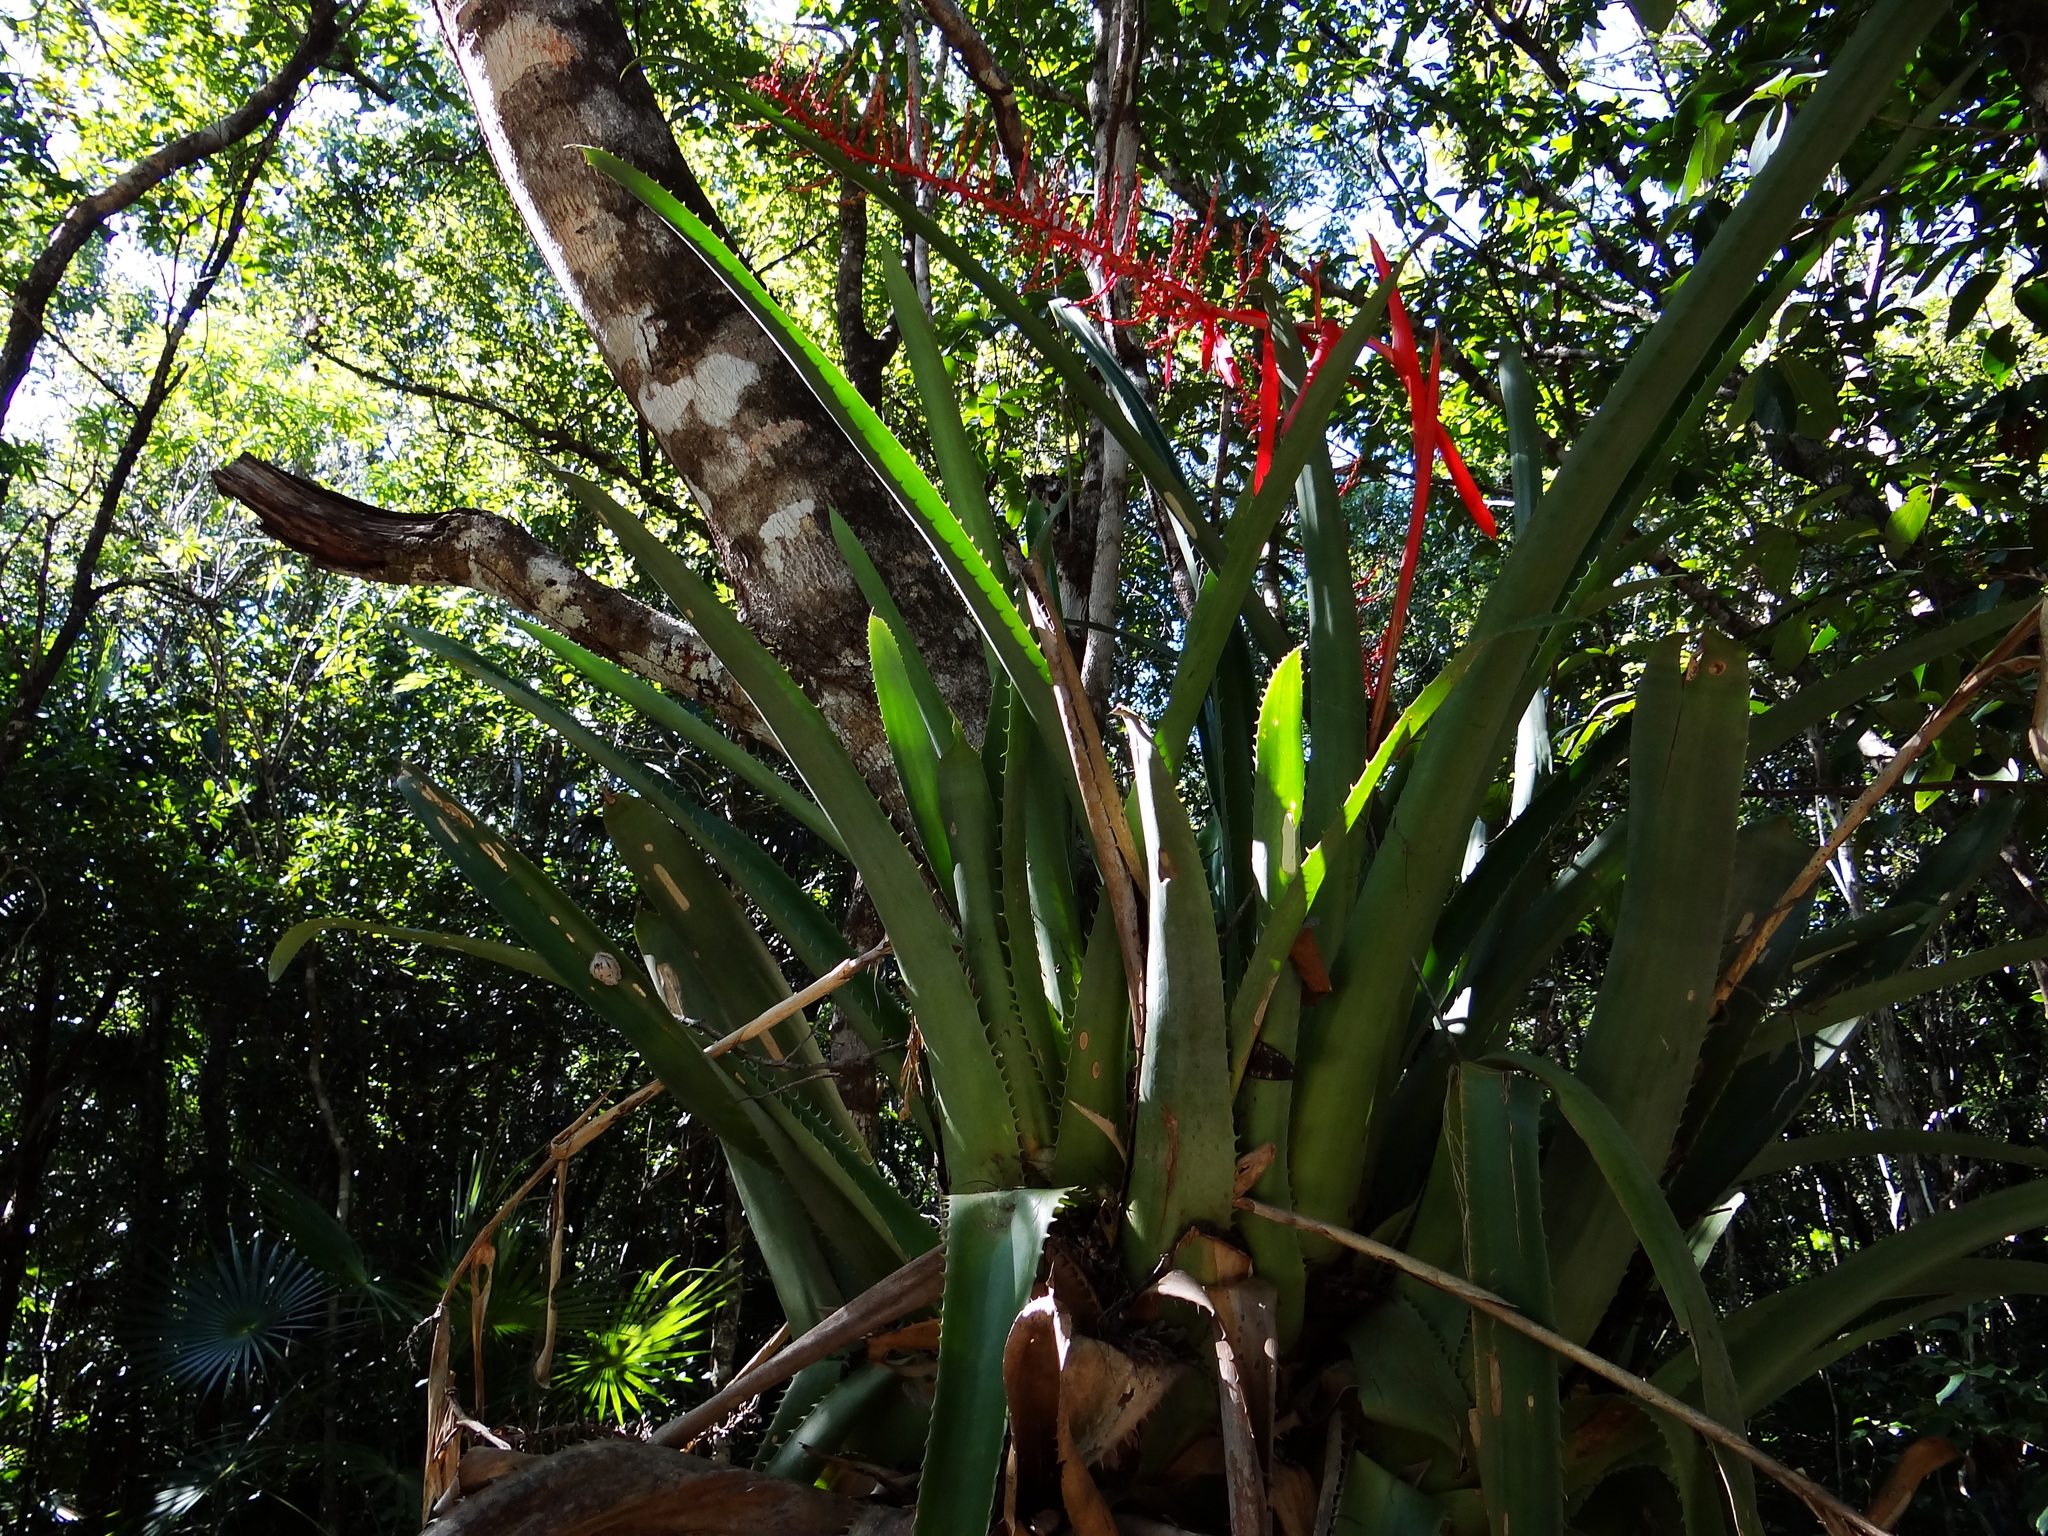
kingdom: Plantae
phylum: Tracheophyta
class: Liliopsida
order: Poales
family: Bromeliaceae
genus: Aechmea
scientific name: Aechmea bracteata
